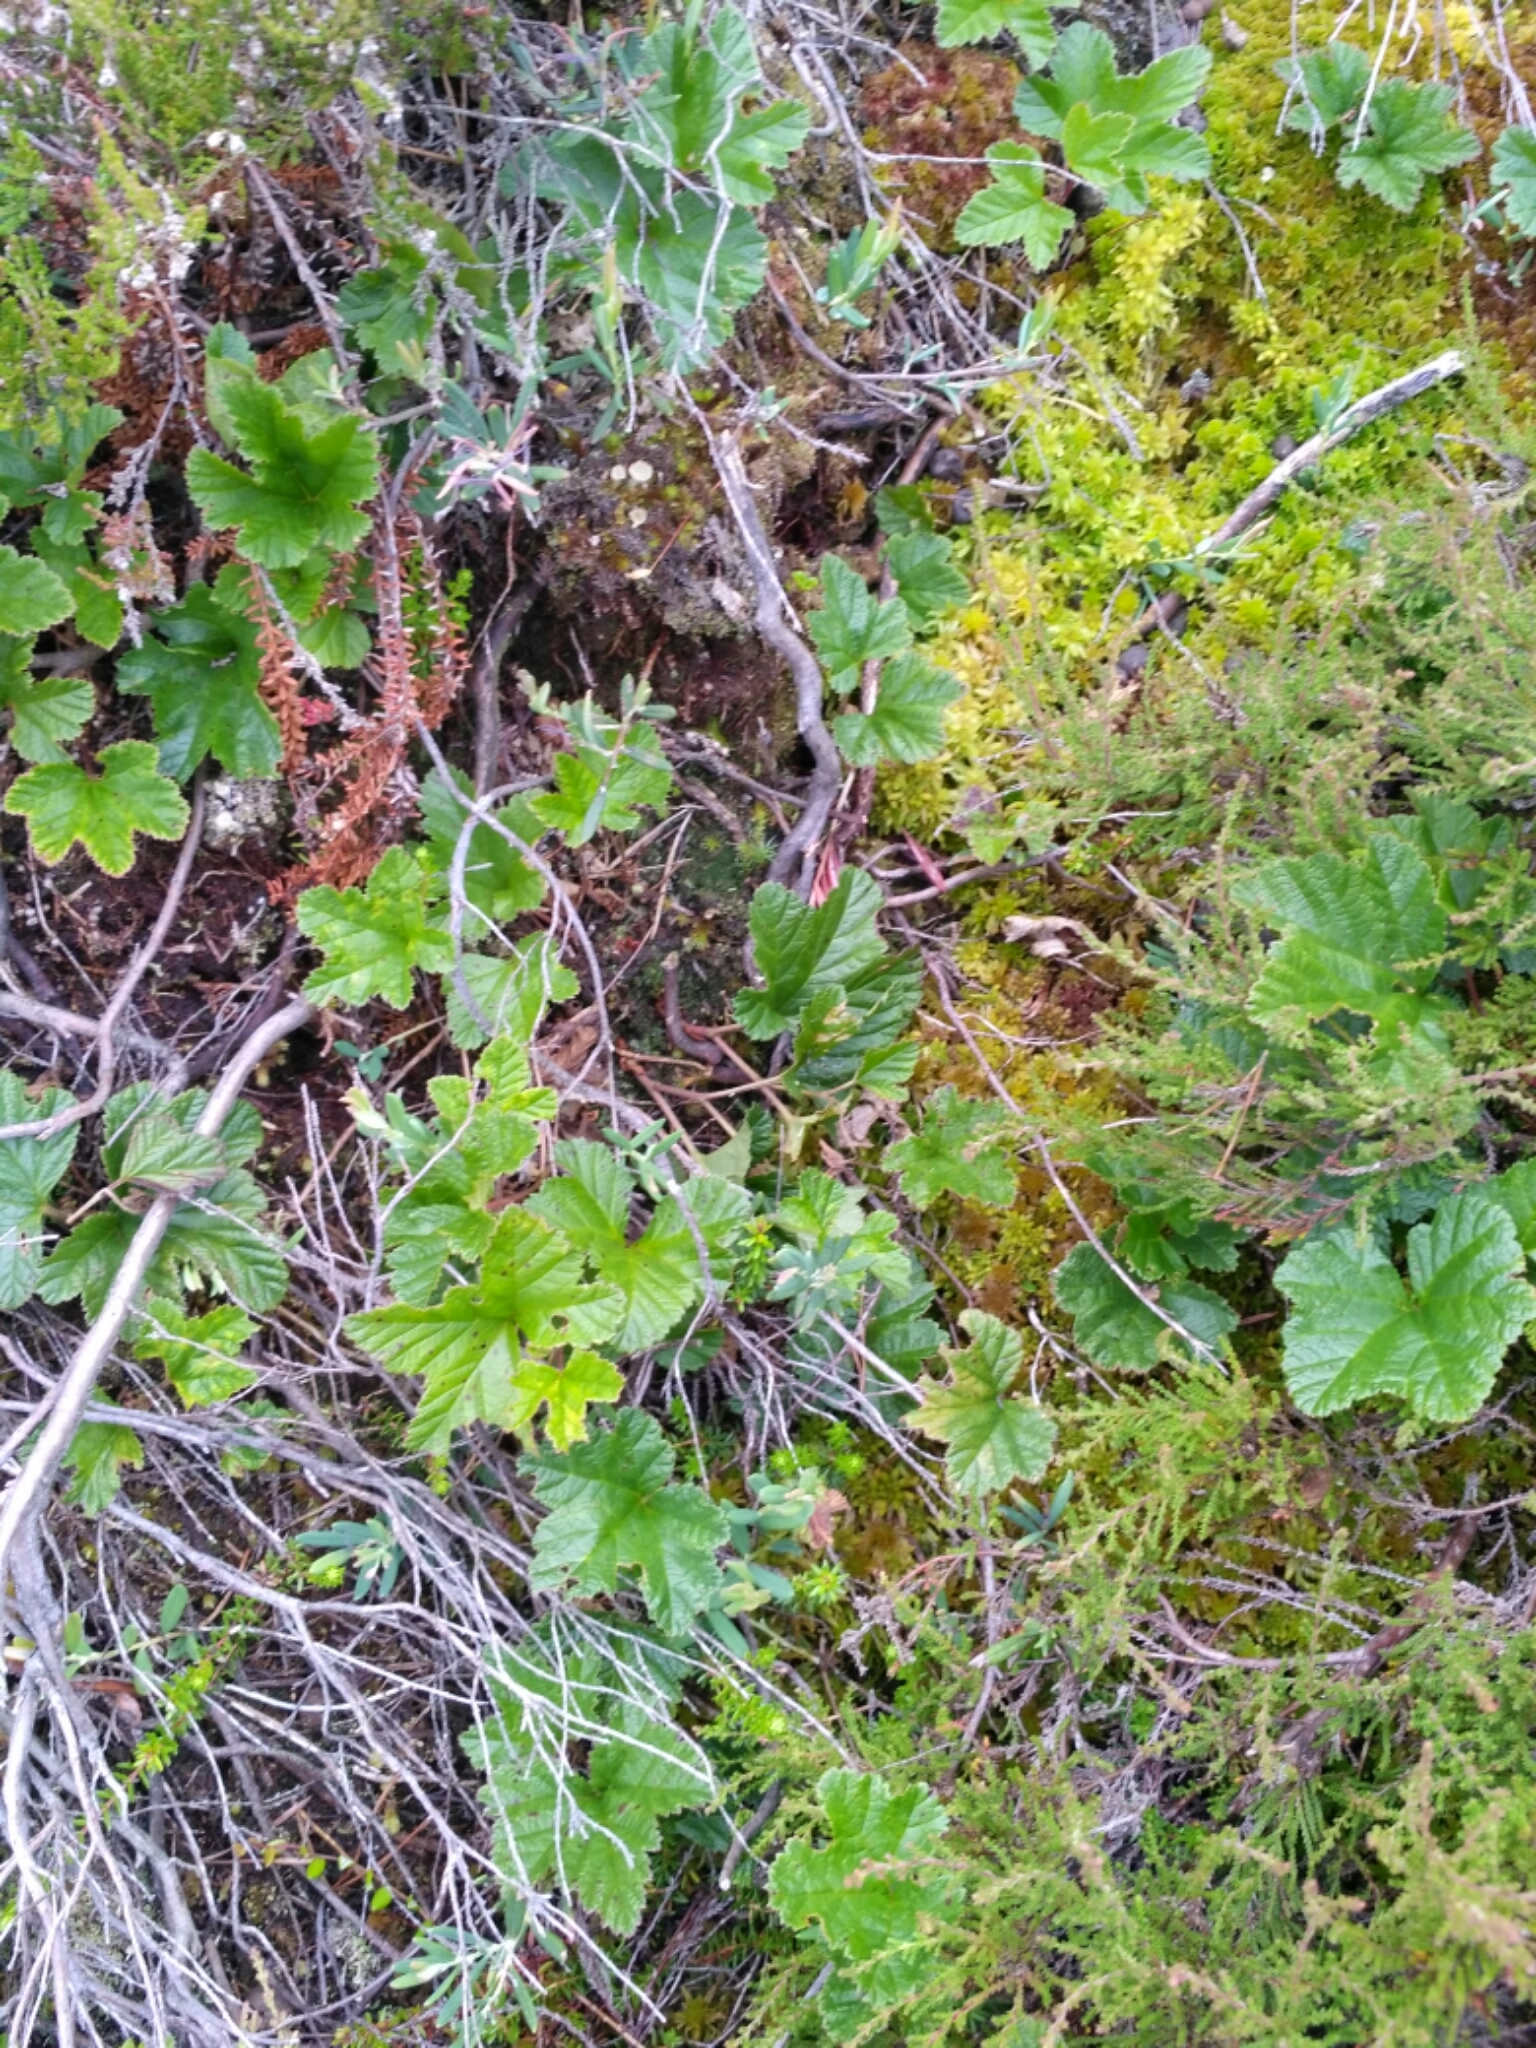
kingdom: Plantae
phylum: Tracheophyta
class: Magnoliopsida
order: Rosales
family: Rosaceae
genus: Rubus
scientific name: Rubus chamaemorus
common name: Cloudberry
